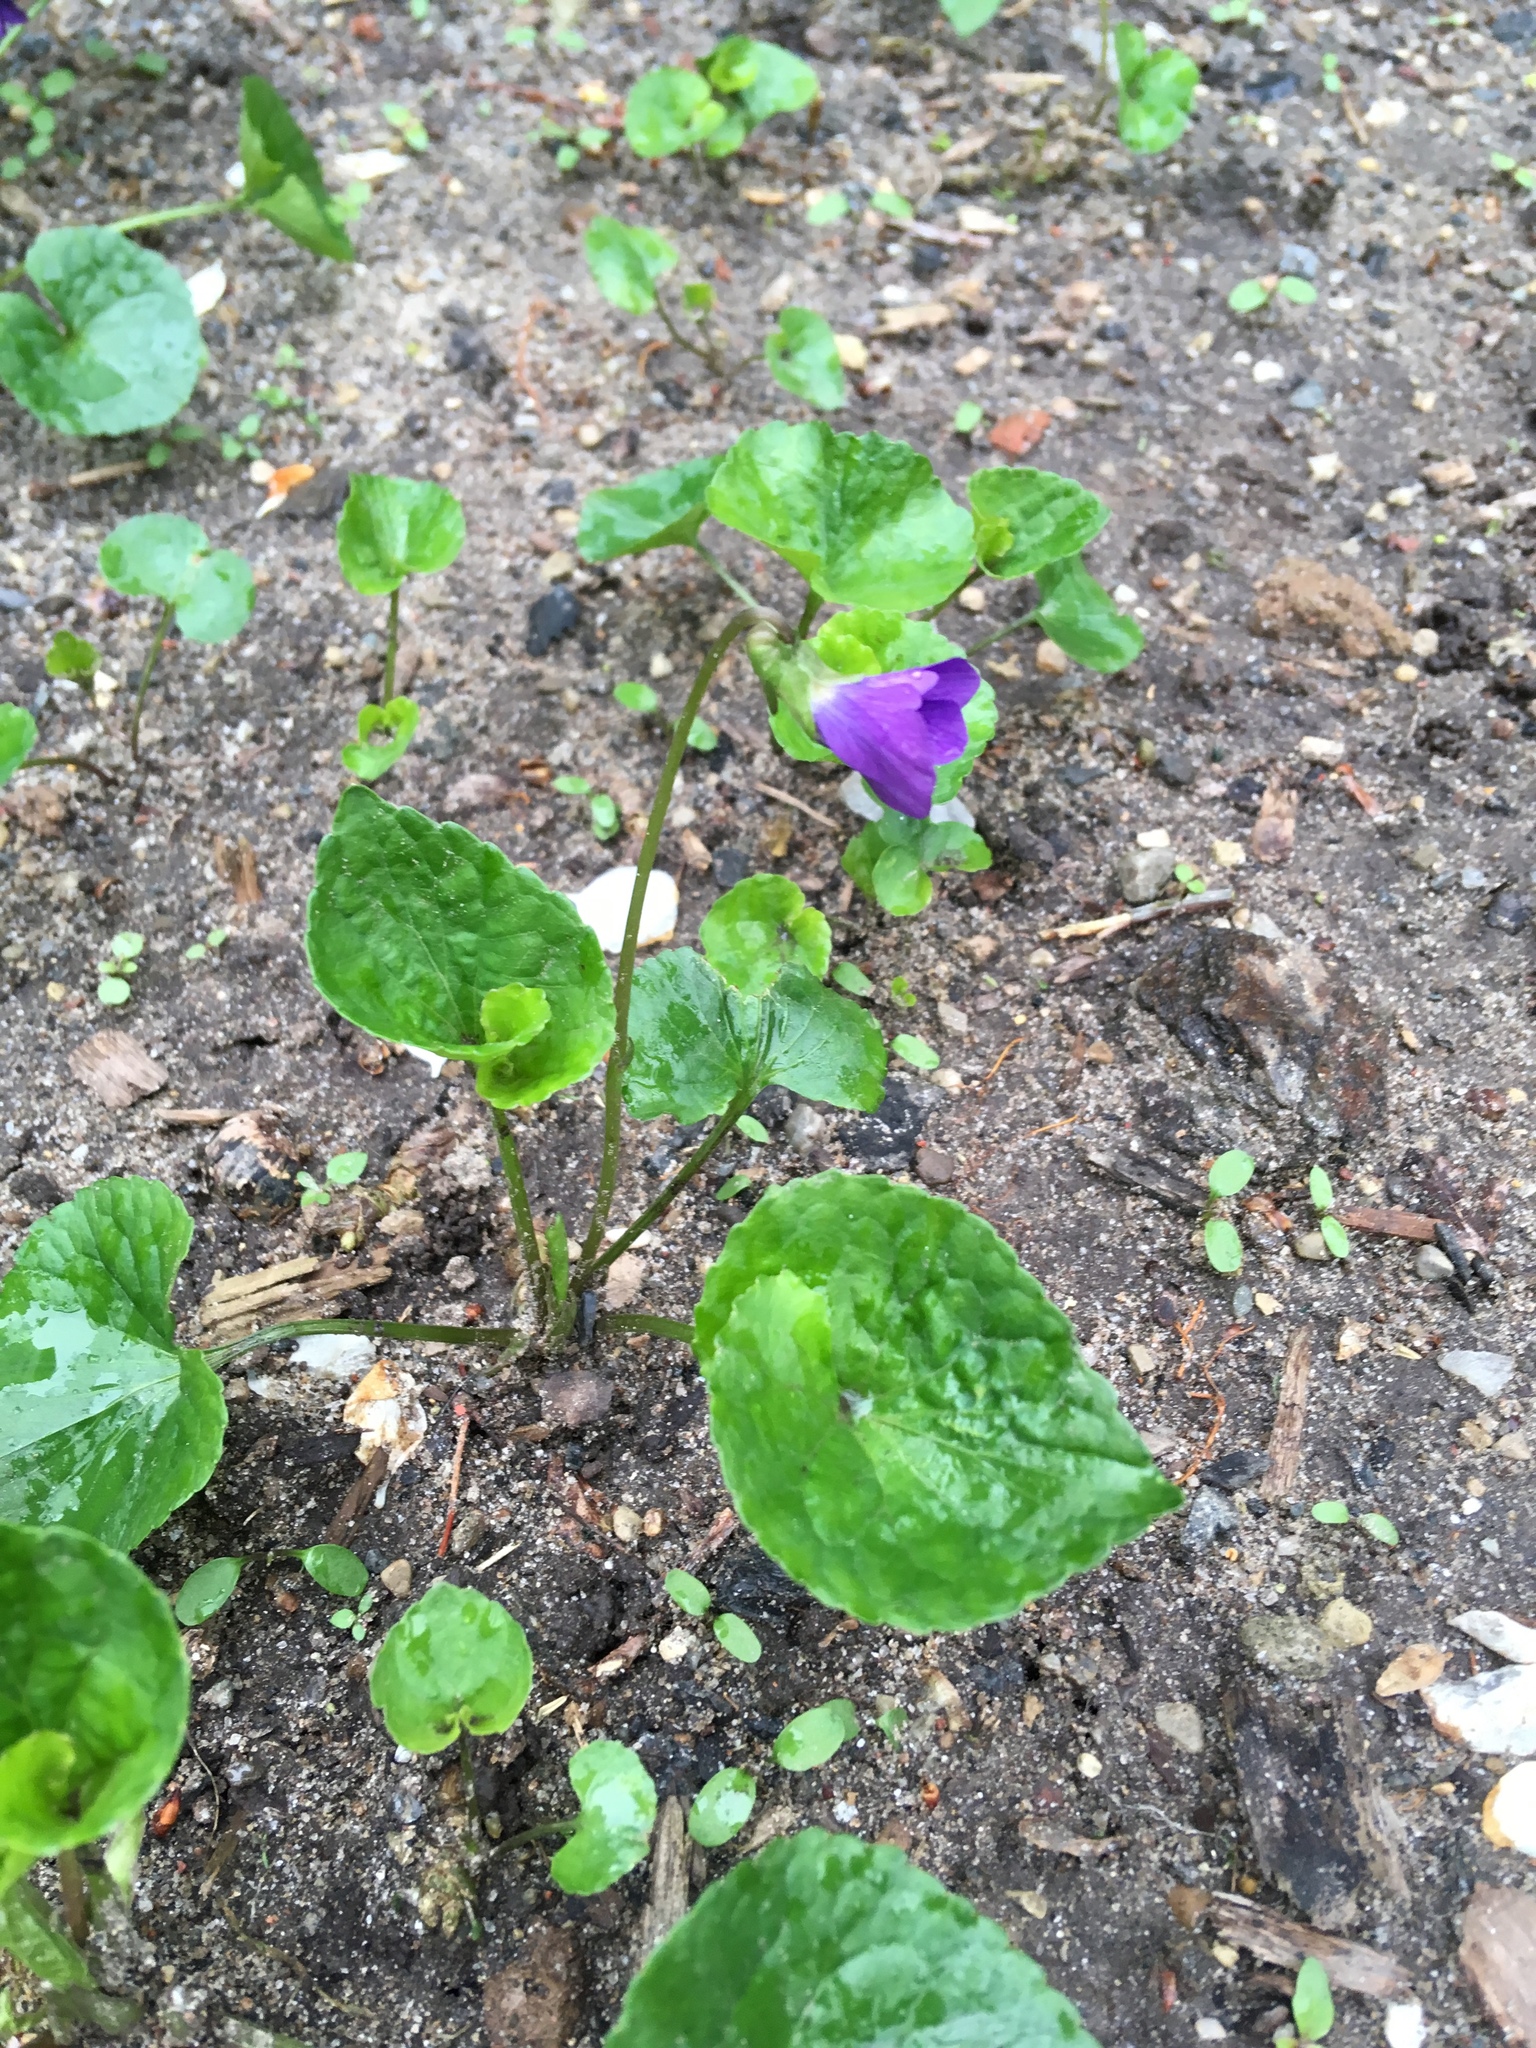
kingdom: Plantae
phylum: Tracheophyta
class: Magnoliopsida
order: Malpighiales
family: Violaceae
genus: Viola
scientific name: Viola sororia
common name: Dooryard violet
